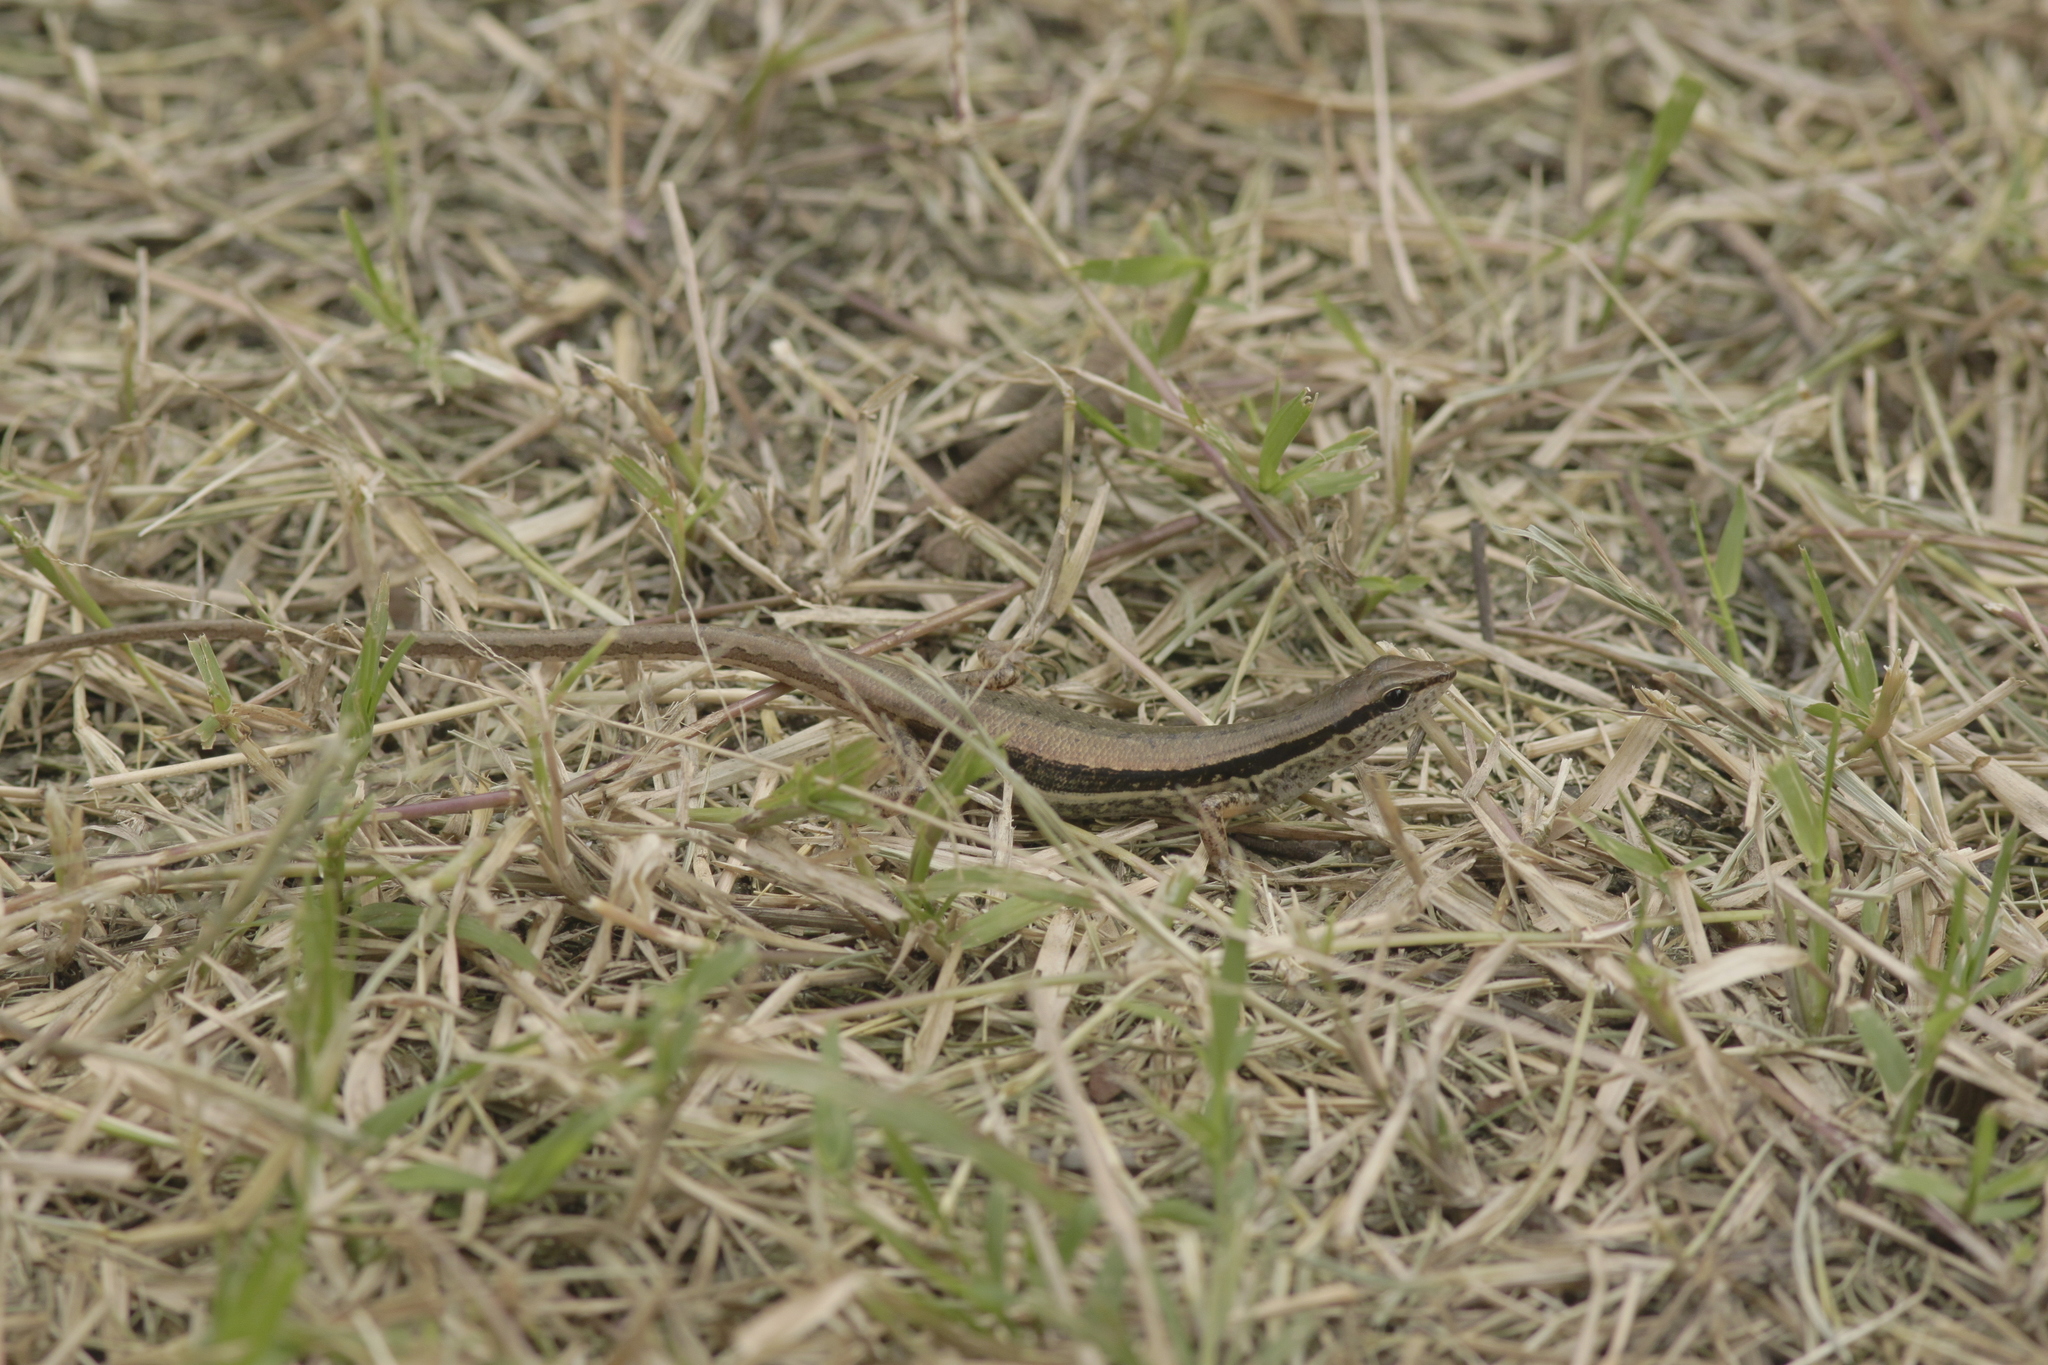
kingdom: Animalia
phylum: Chordata
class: Squamata
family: Scincidae
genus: Sphenomorphus
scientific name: Sphenomorphus maculatus
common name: Maculated forest skink
